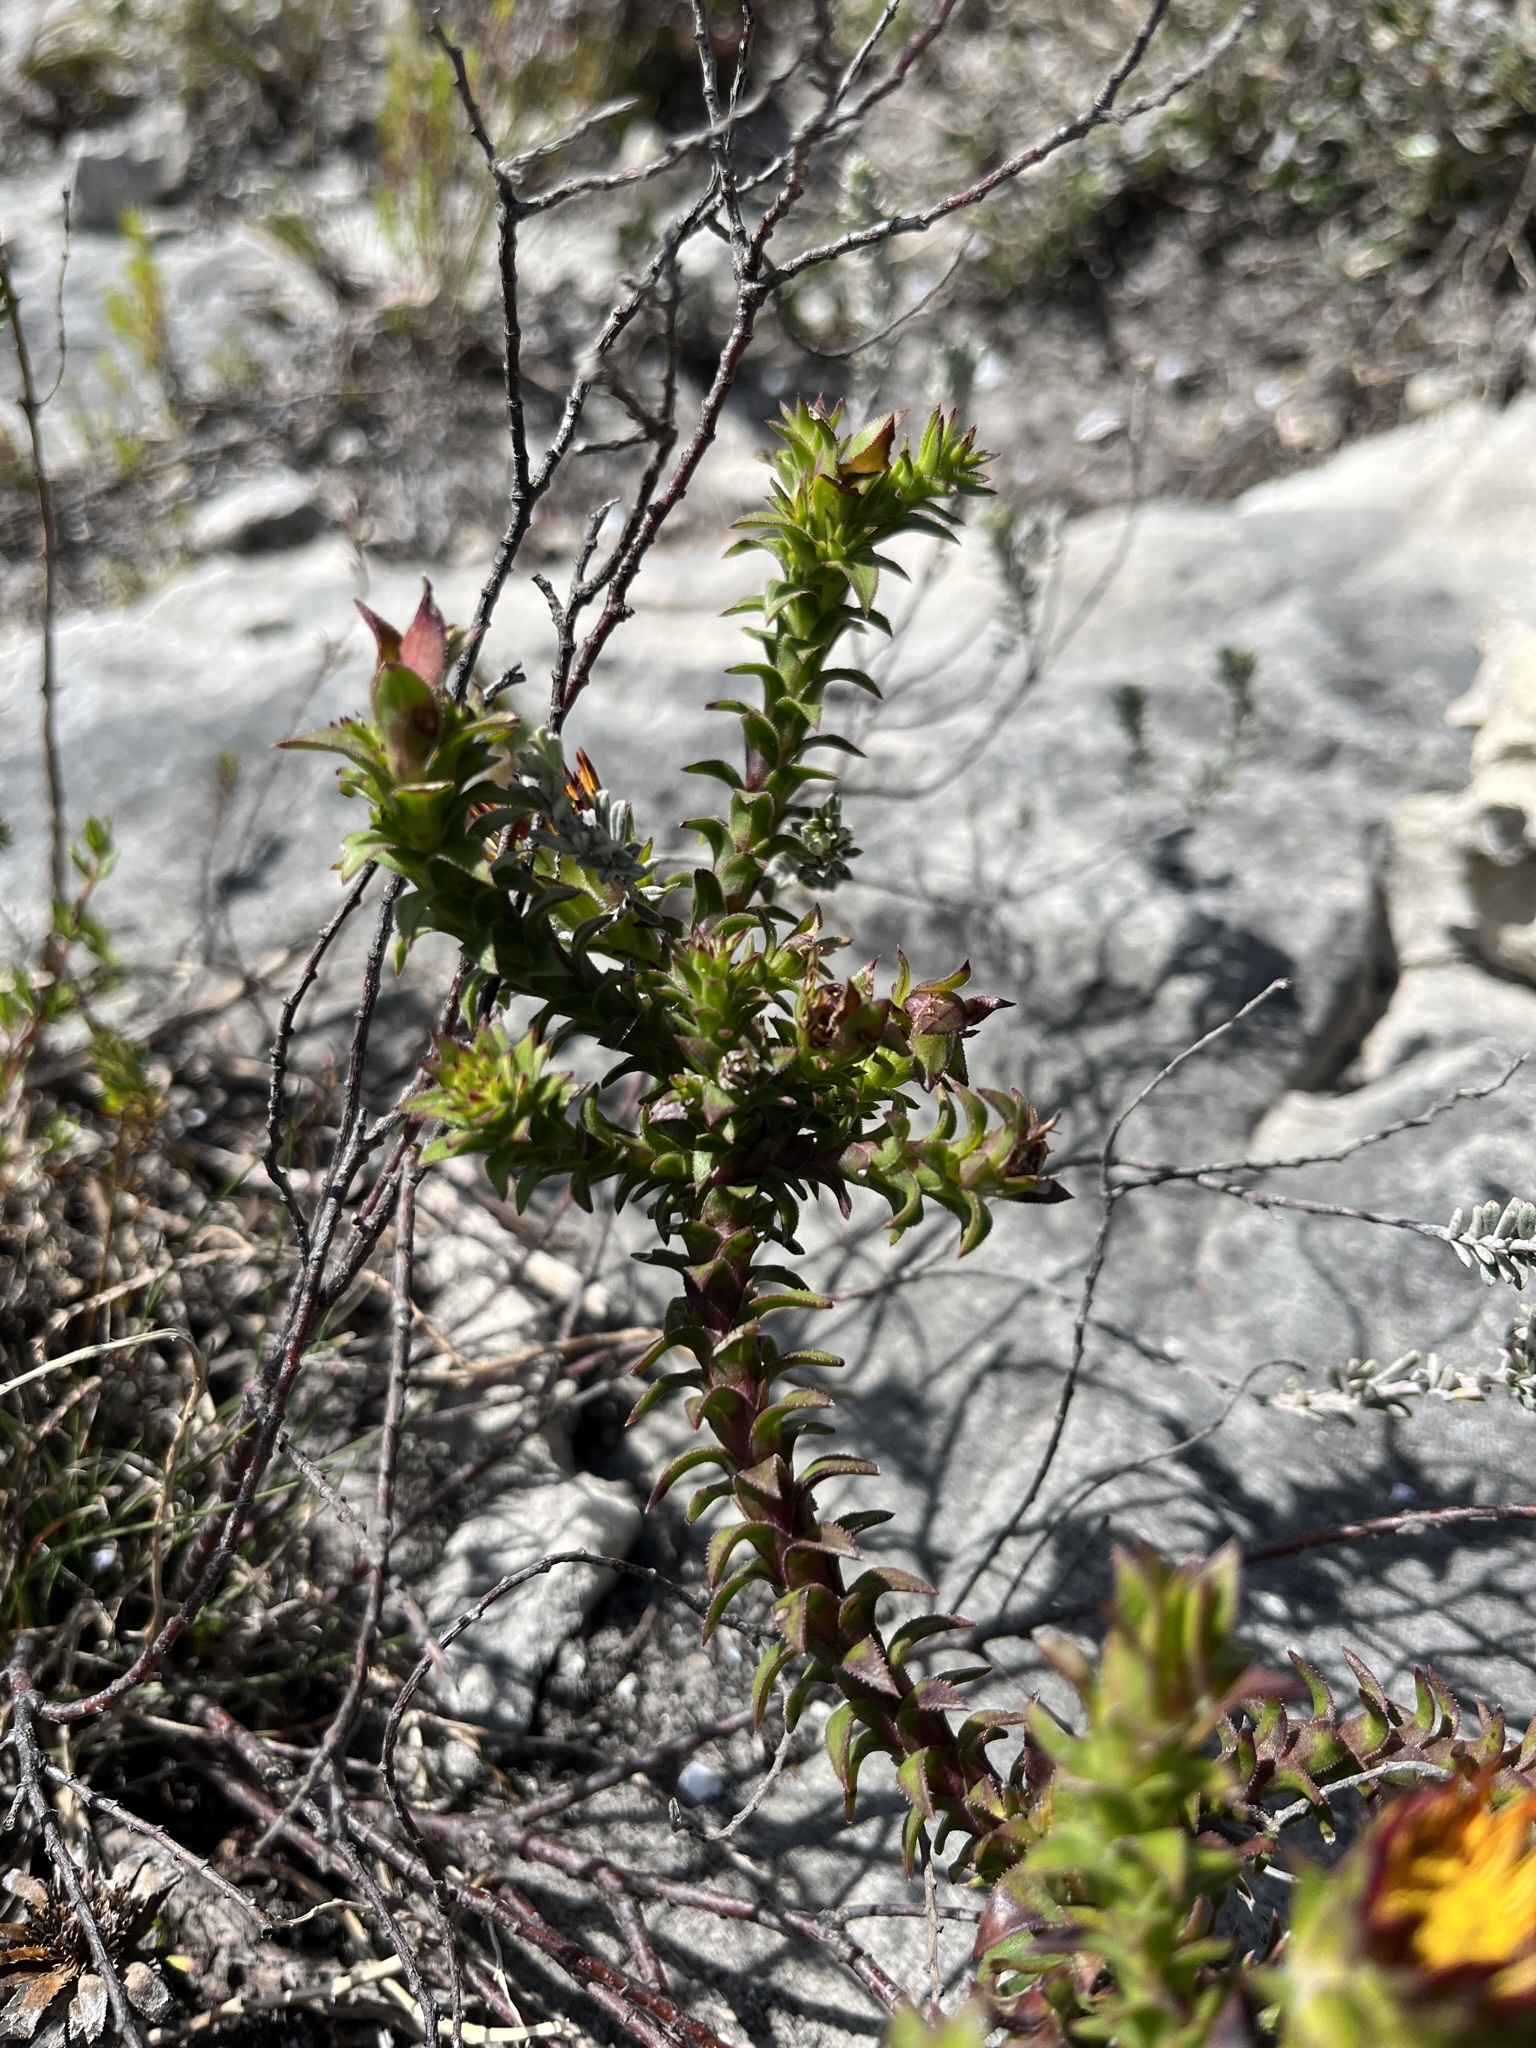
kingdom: Plantae
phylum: Tracheophyta
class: Magnoliopsida
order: Asterales
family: Asteraceae
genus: Oedera
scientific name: Oedera capensis
